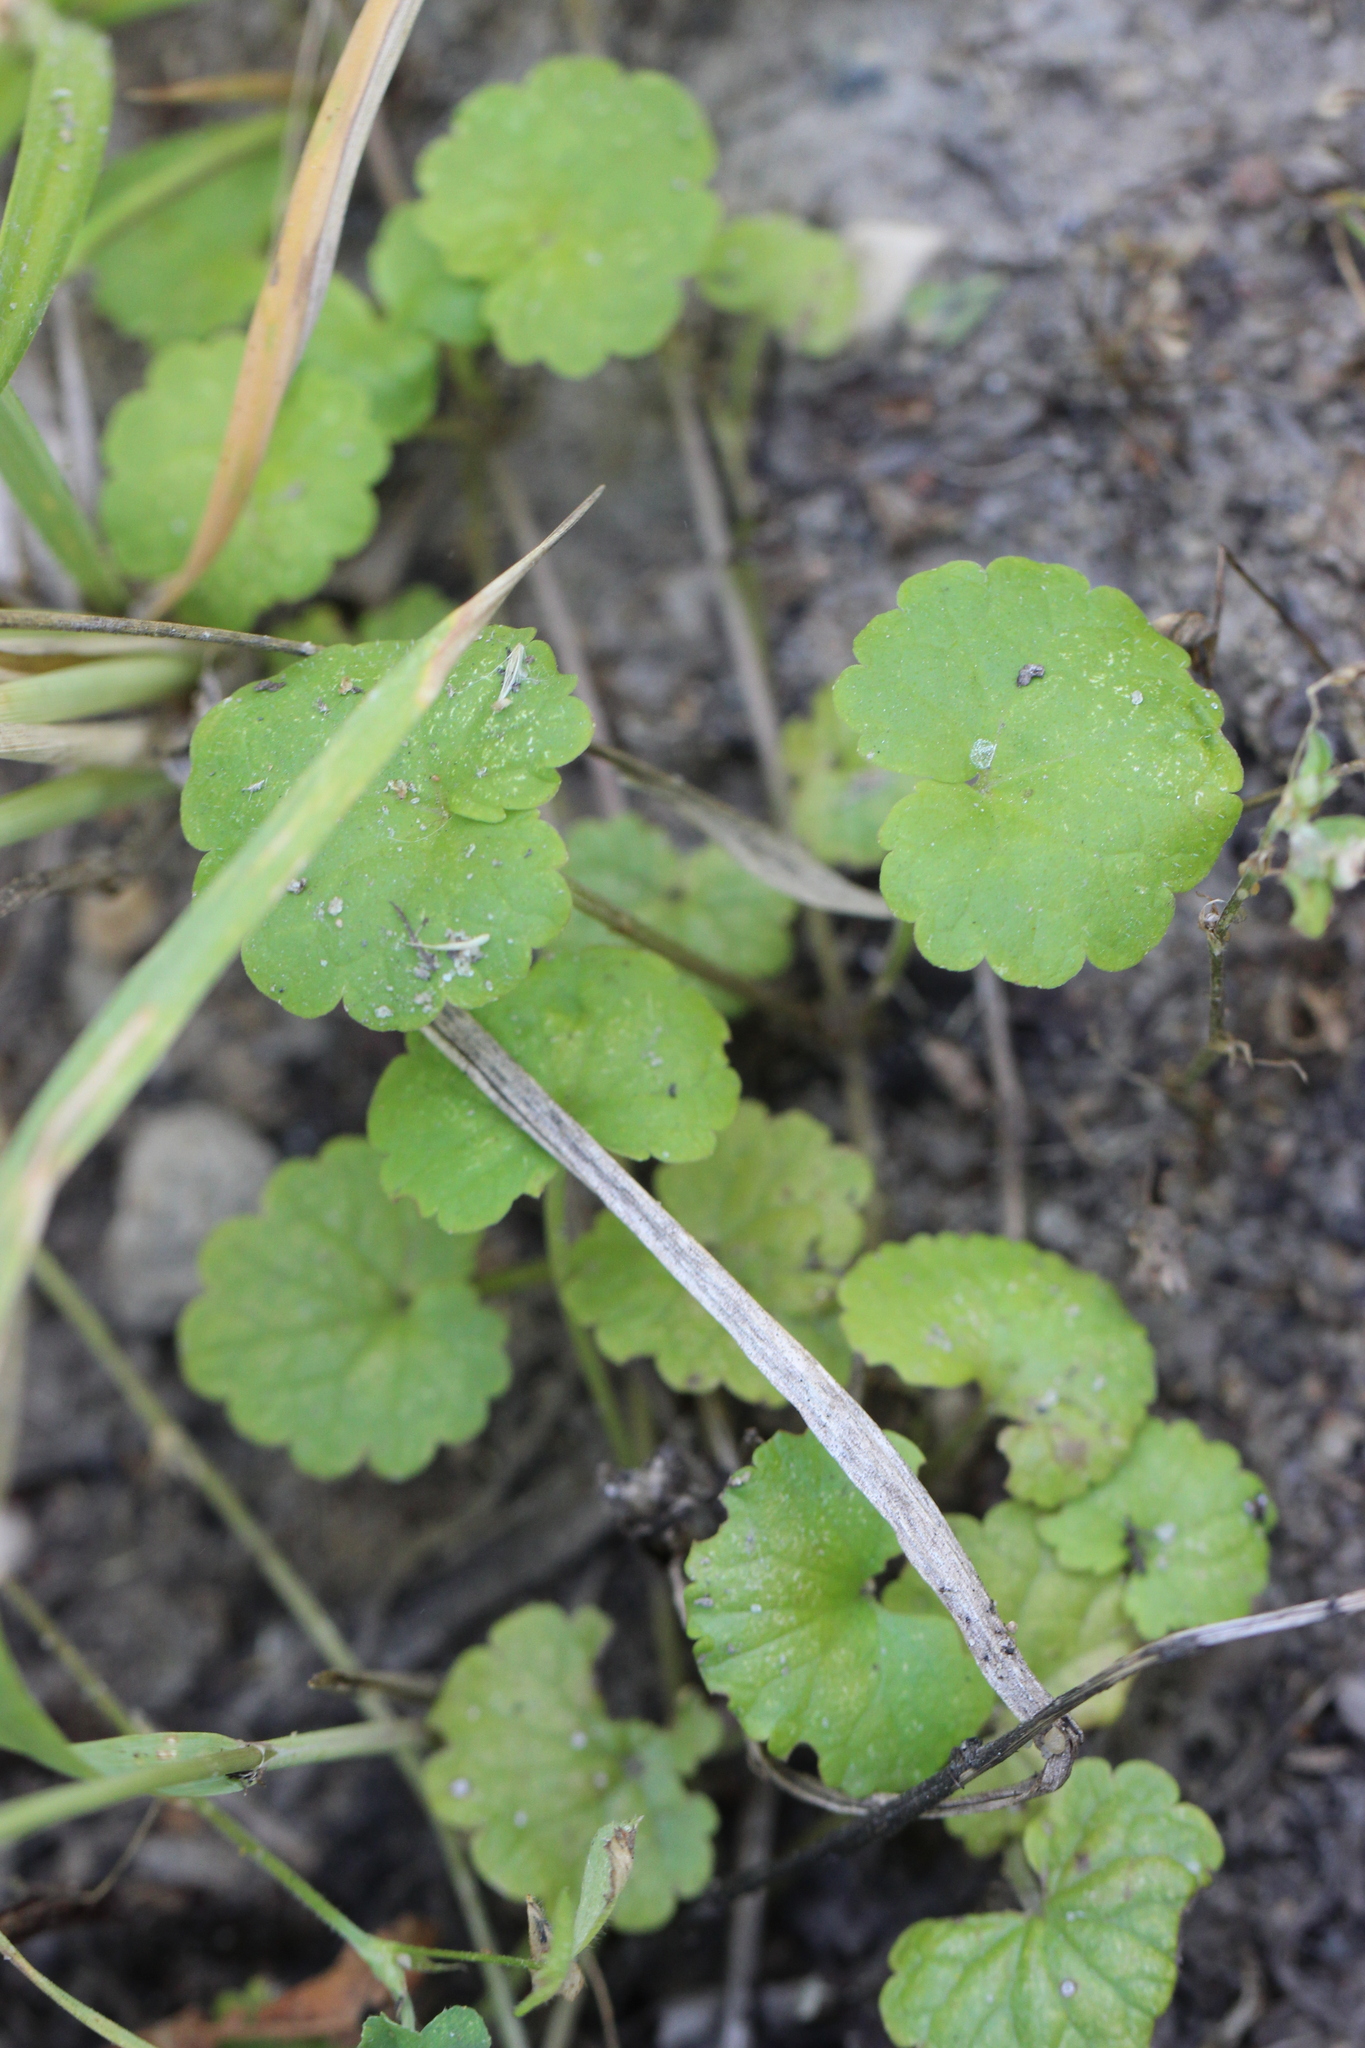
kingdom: Plantae
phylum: Tracheophyta
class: Magnoliopsida
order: Lamiales
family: Lamiaceae
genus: Glechoma
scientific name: Glechoma hederacea
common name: Ground ivy
